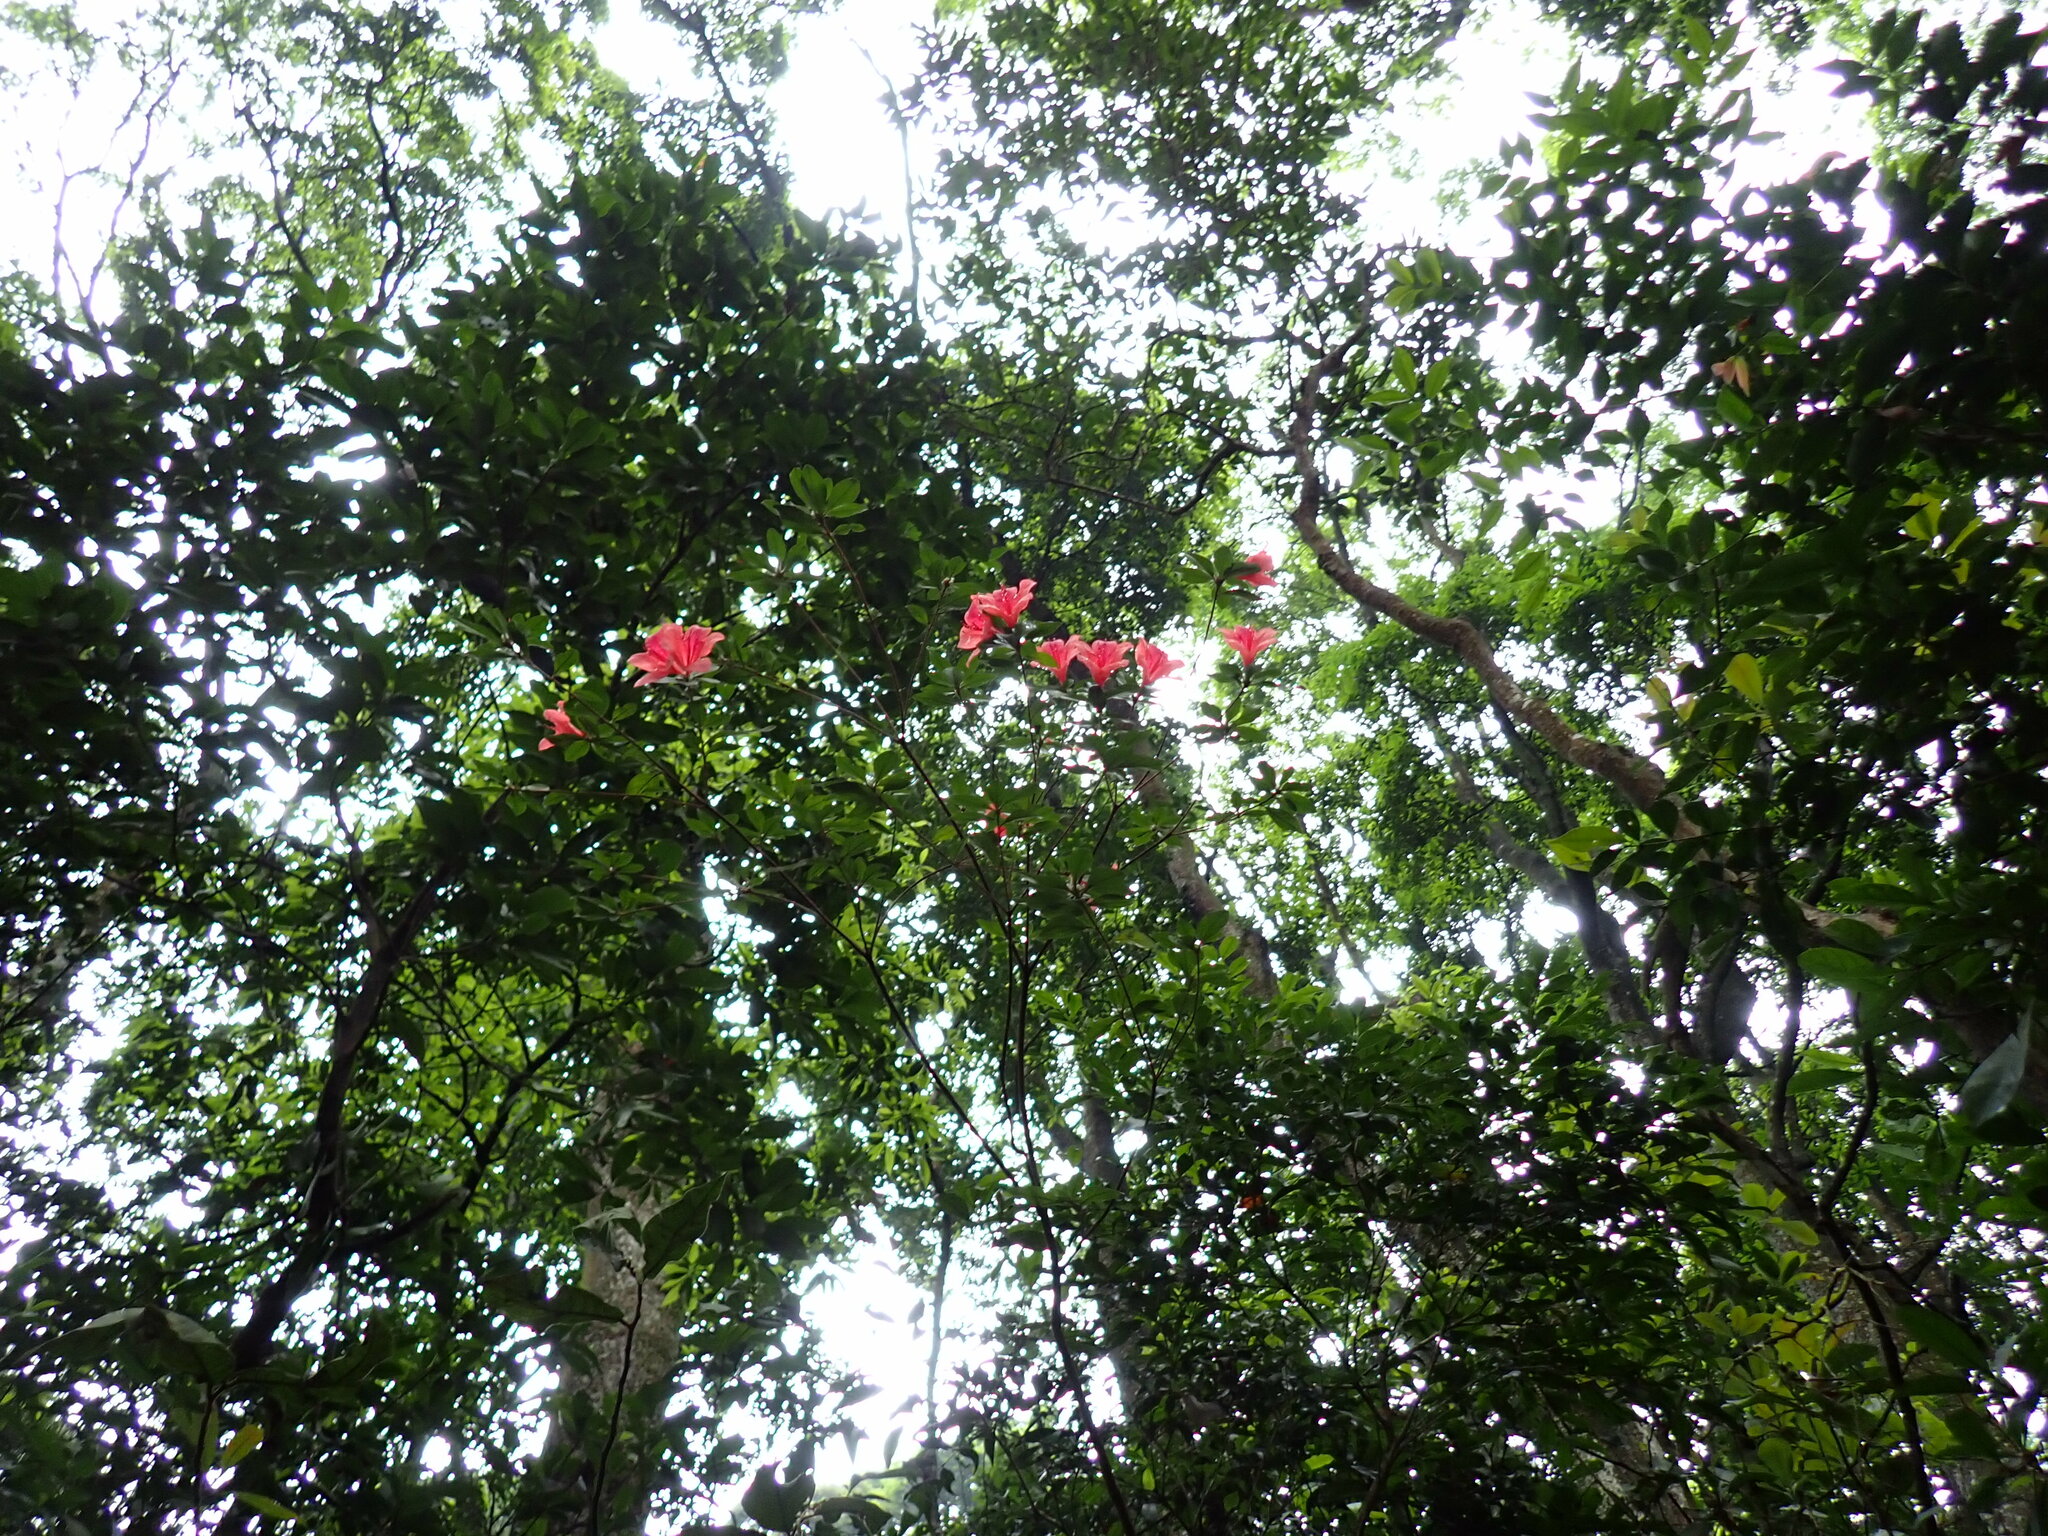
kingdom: Plantae
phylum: Tracheophyta
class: Magnoliopsida
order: Ericales
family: Ericaceae
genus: Rhododendron
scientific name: Rhododendron simsii
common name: Rhododendron
